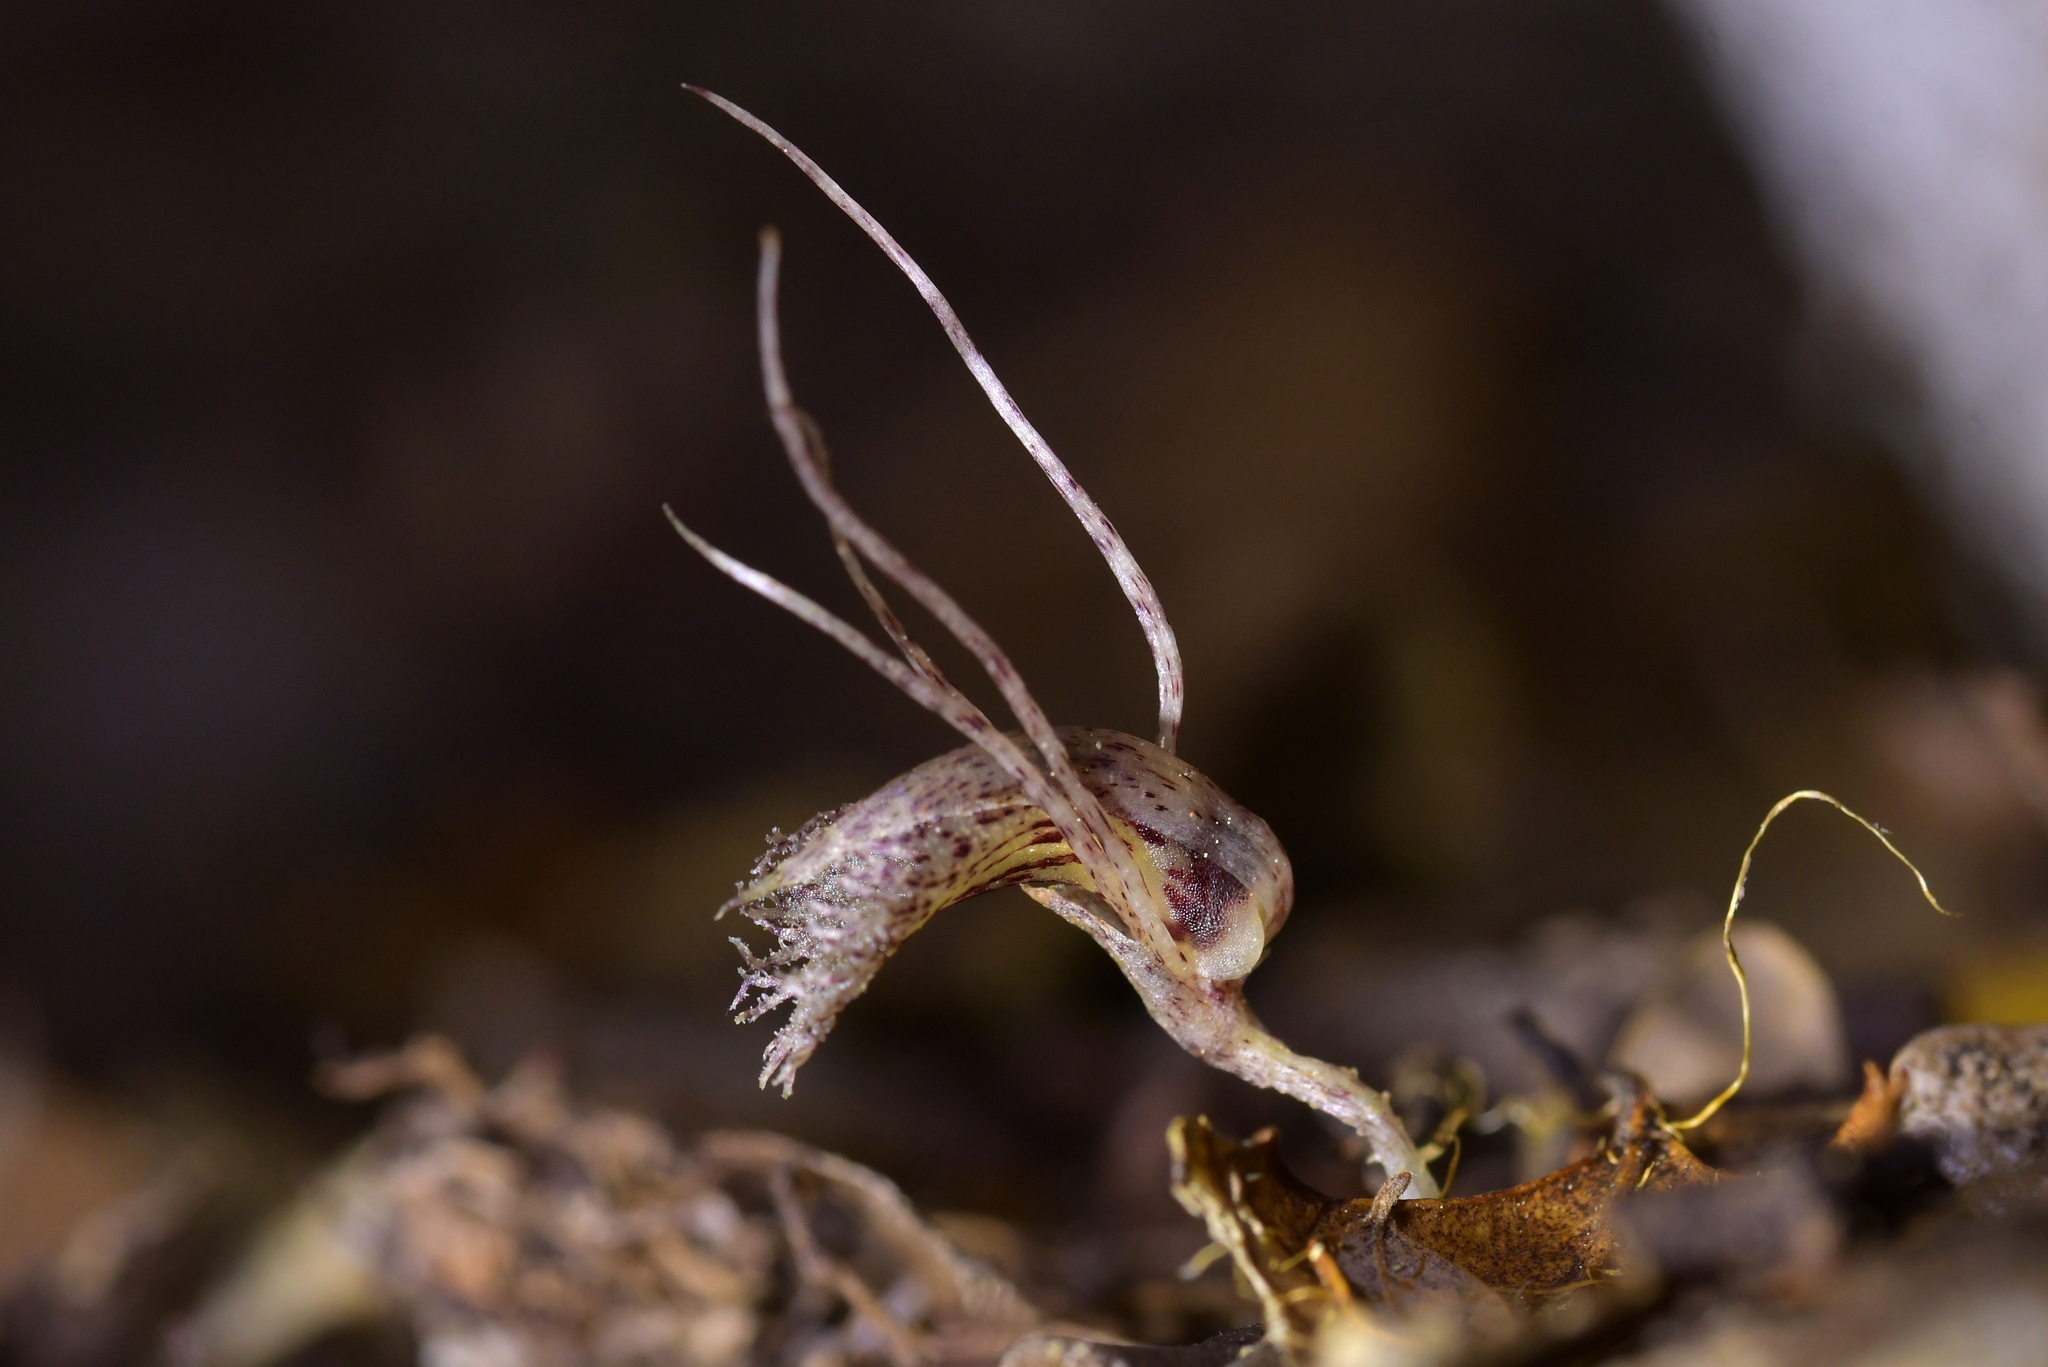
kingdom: Plantae
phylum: Tracheophyta
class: Liliopsida
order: Asparagales
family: Orchidaceae
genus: Corybas
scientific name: Corybas cryptanthus
